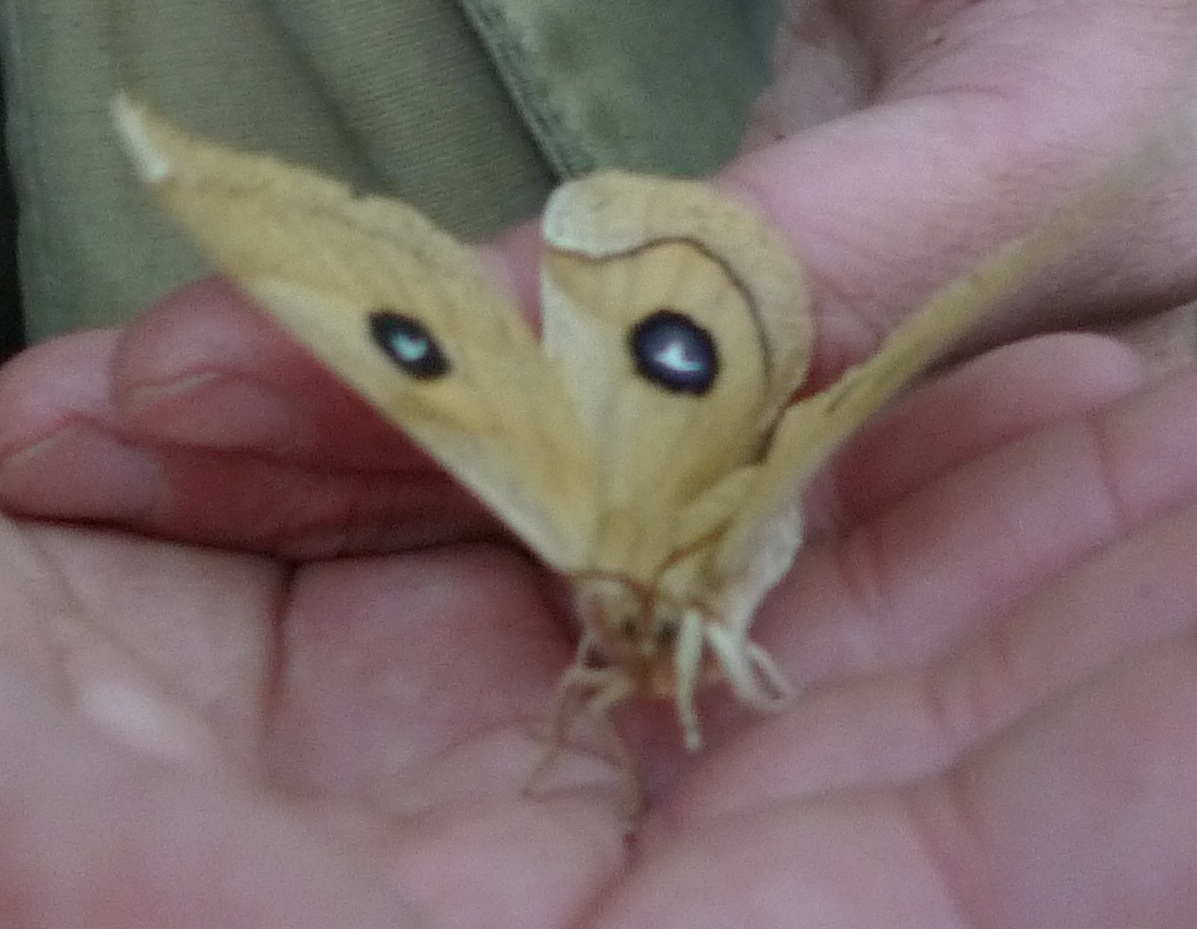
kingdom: Animalia
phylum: Arthropoda
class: Insecta
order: Lepidoptera
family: Saturniidae
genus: Aglia
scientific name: Aglia tau
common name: Tau emperor
